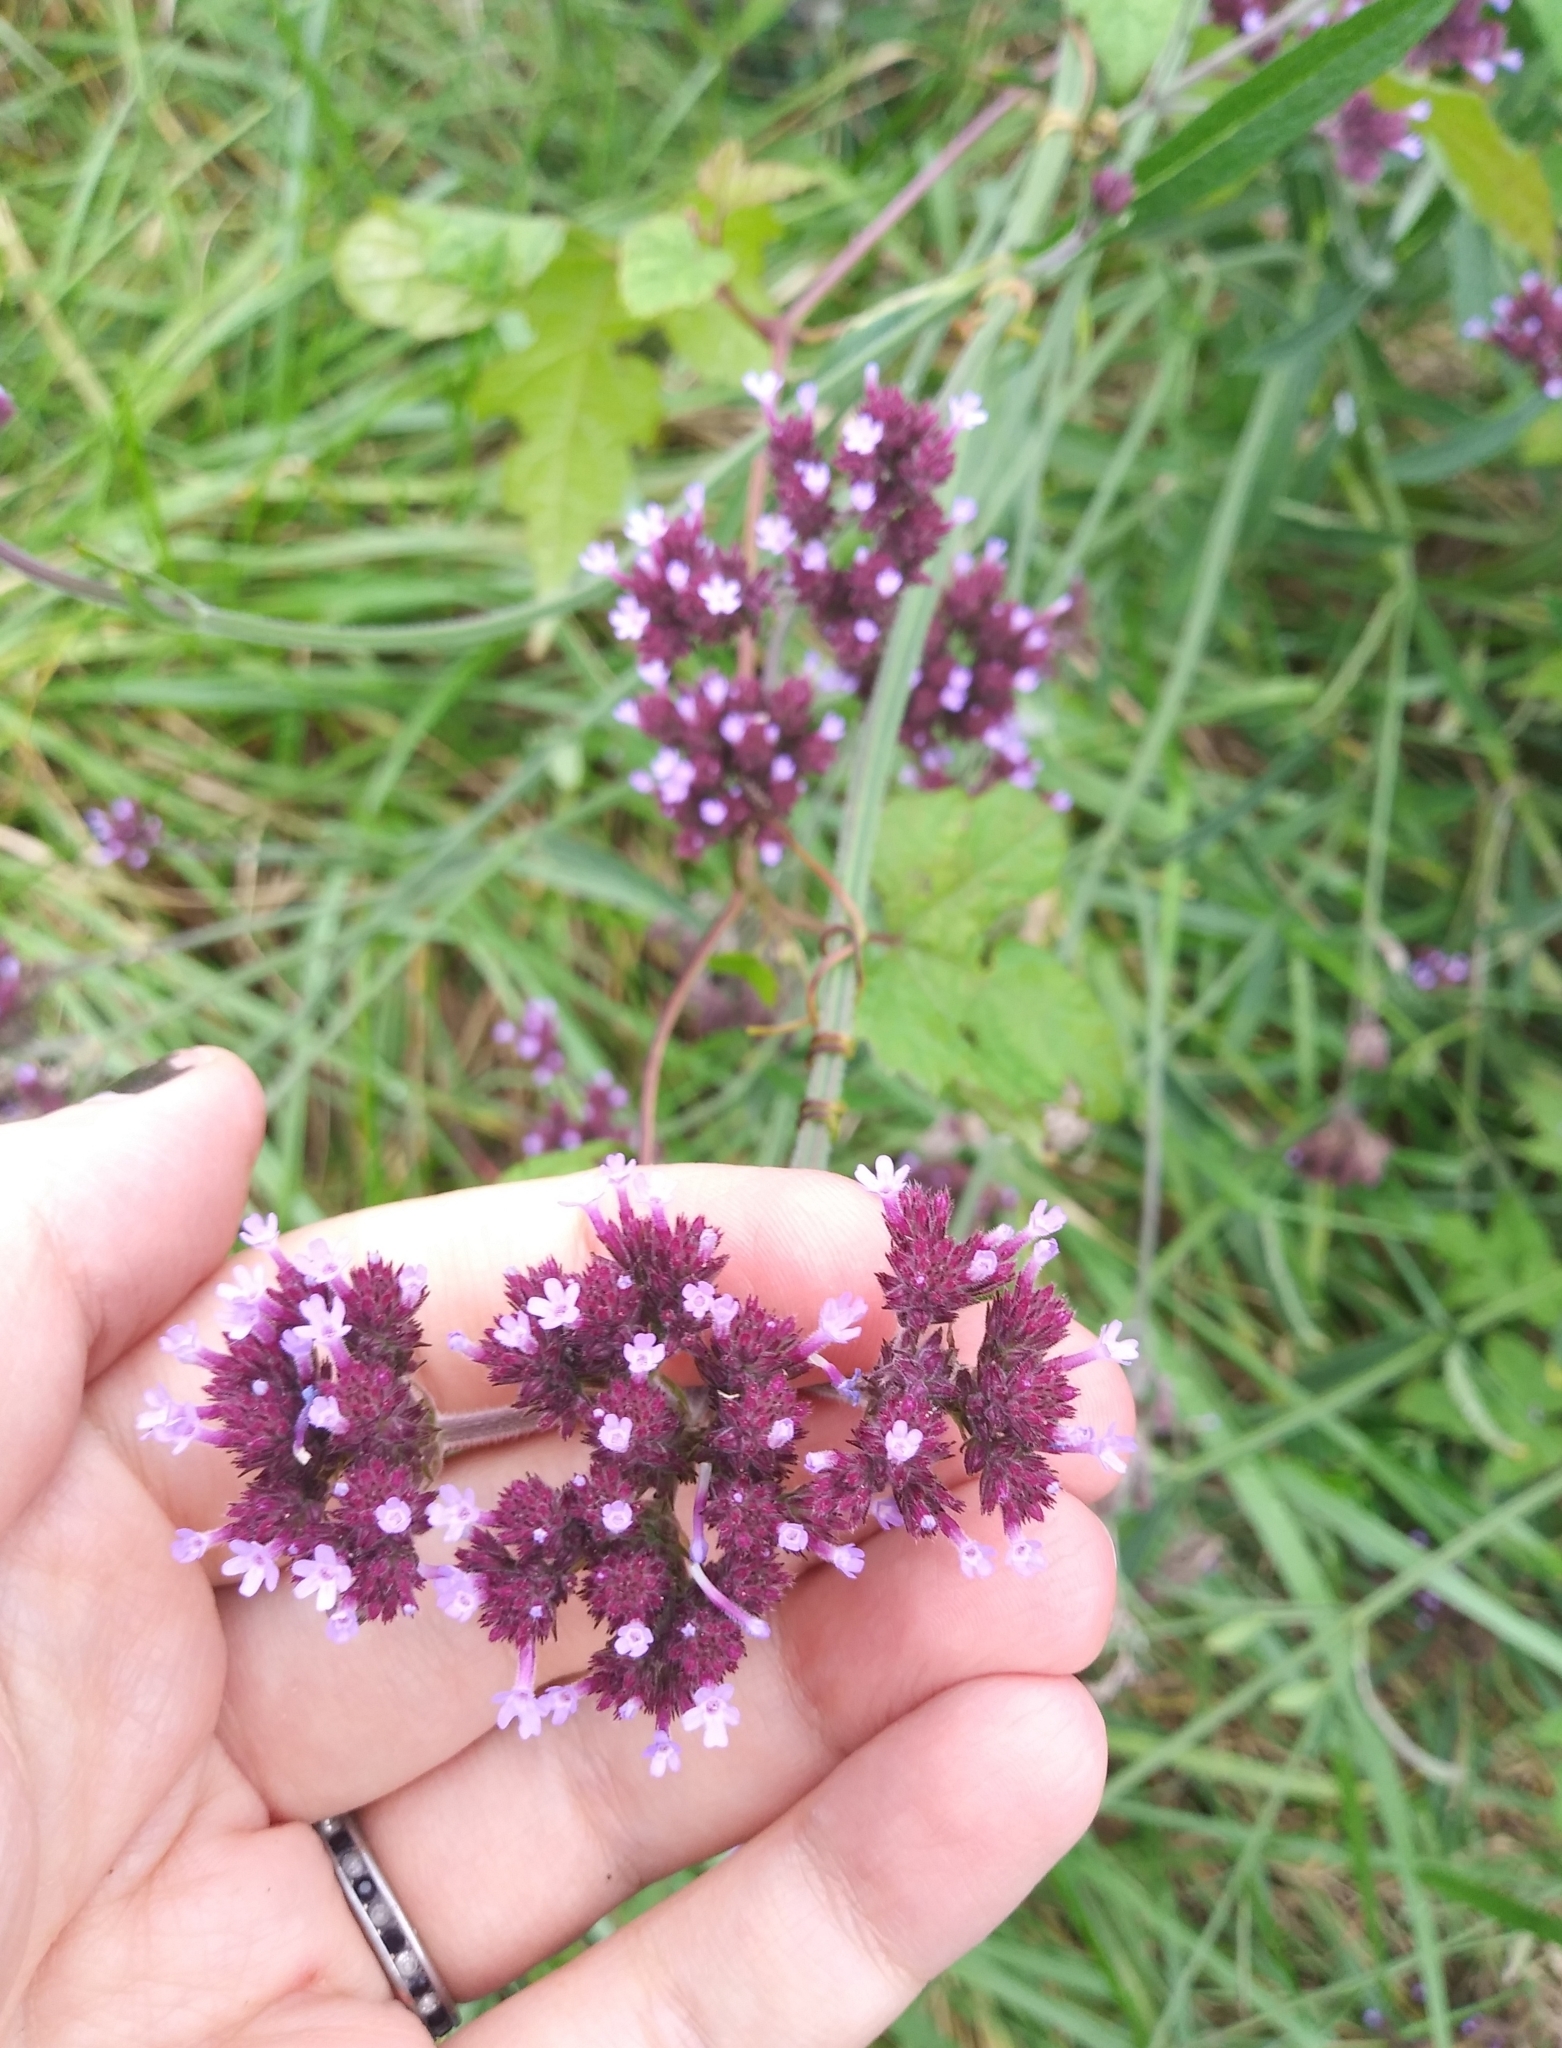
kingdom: Plantae
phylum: Tracheophyta
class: Magnoliopsida
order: Lamiales
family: Verbenaceae
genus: Verbena
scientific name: Verbena brasiliensis
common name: Brazilian vervain
